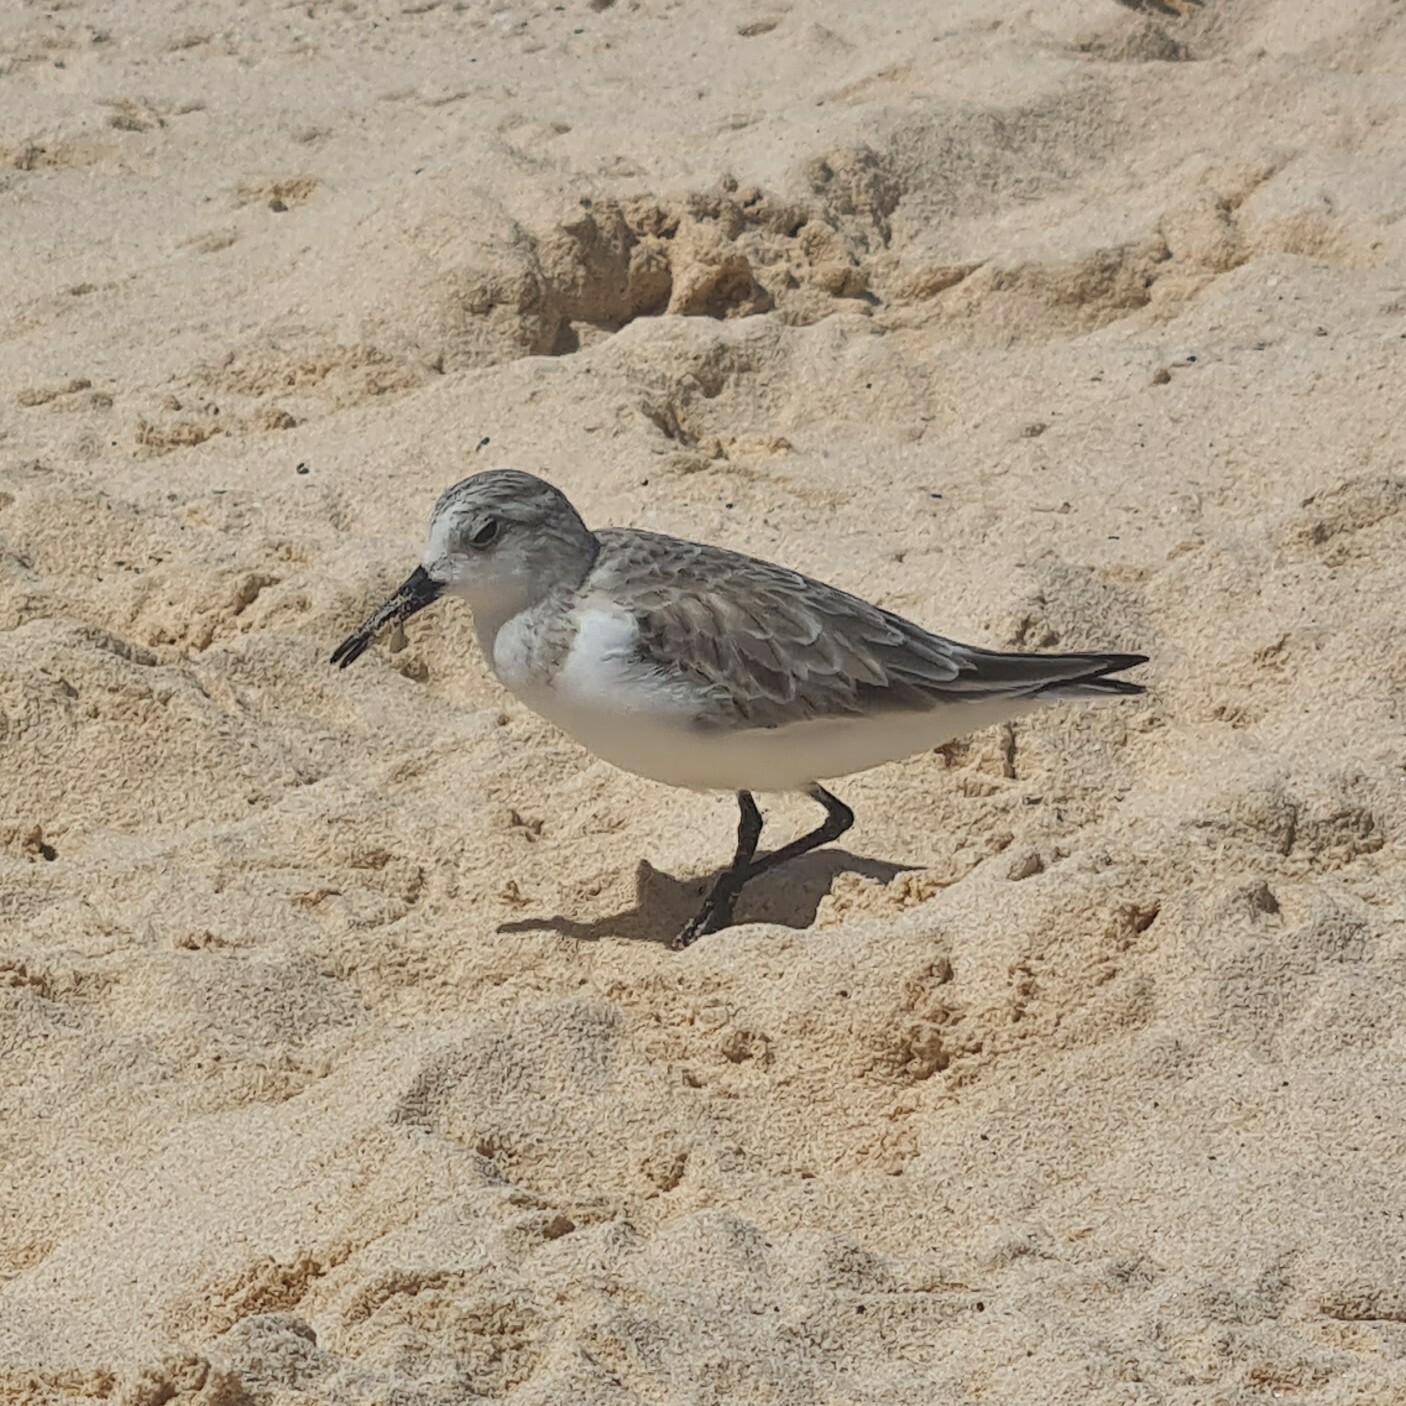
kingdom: Animalia
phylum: Chordata
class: Aves
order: Charadriiformes
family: Scolopacidae
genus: Calidris
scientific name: Calidris alba
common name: Sanderling
